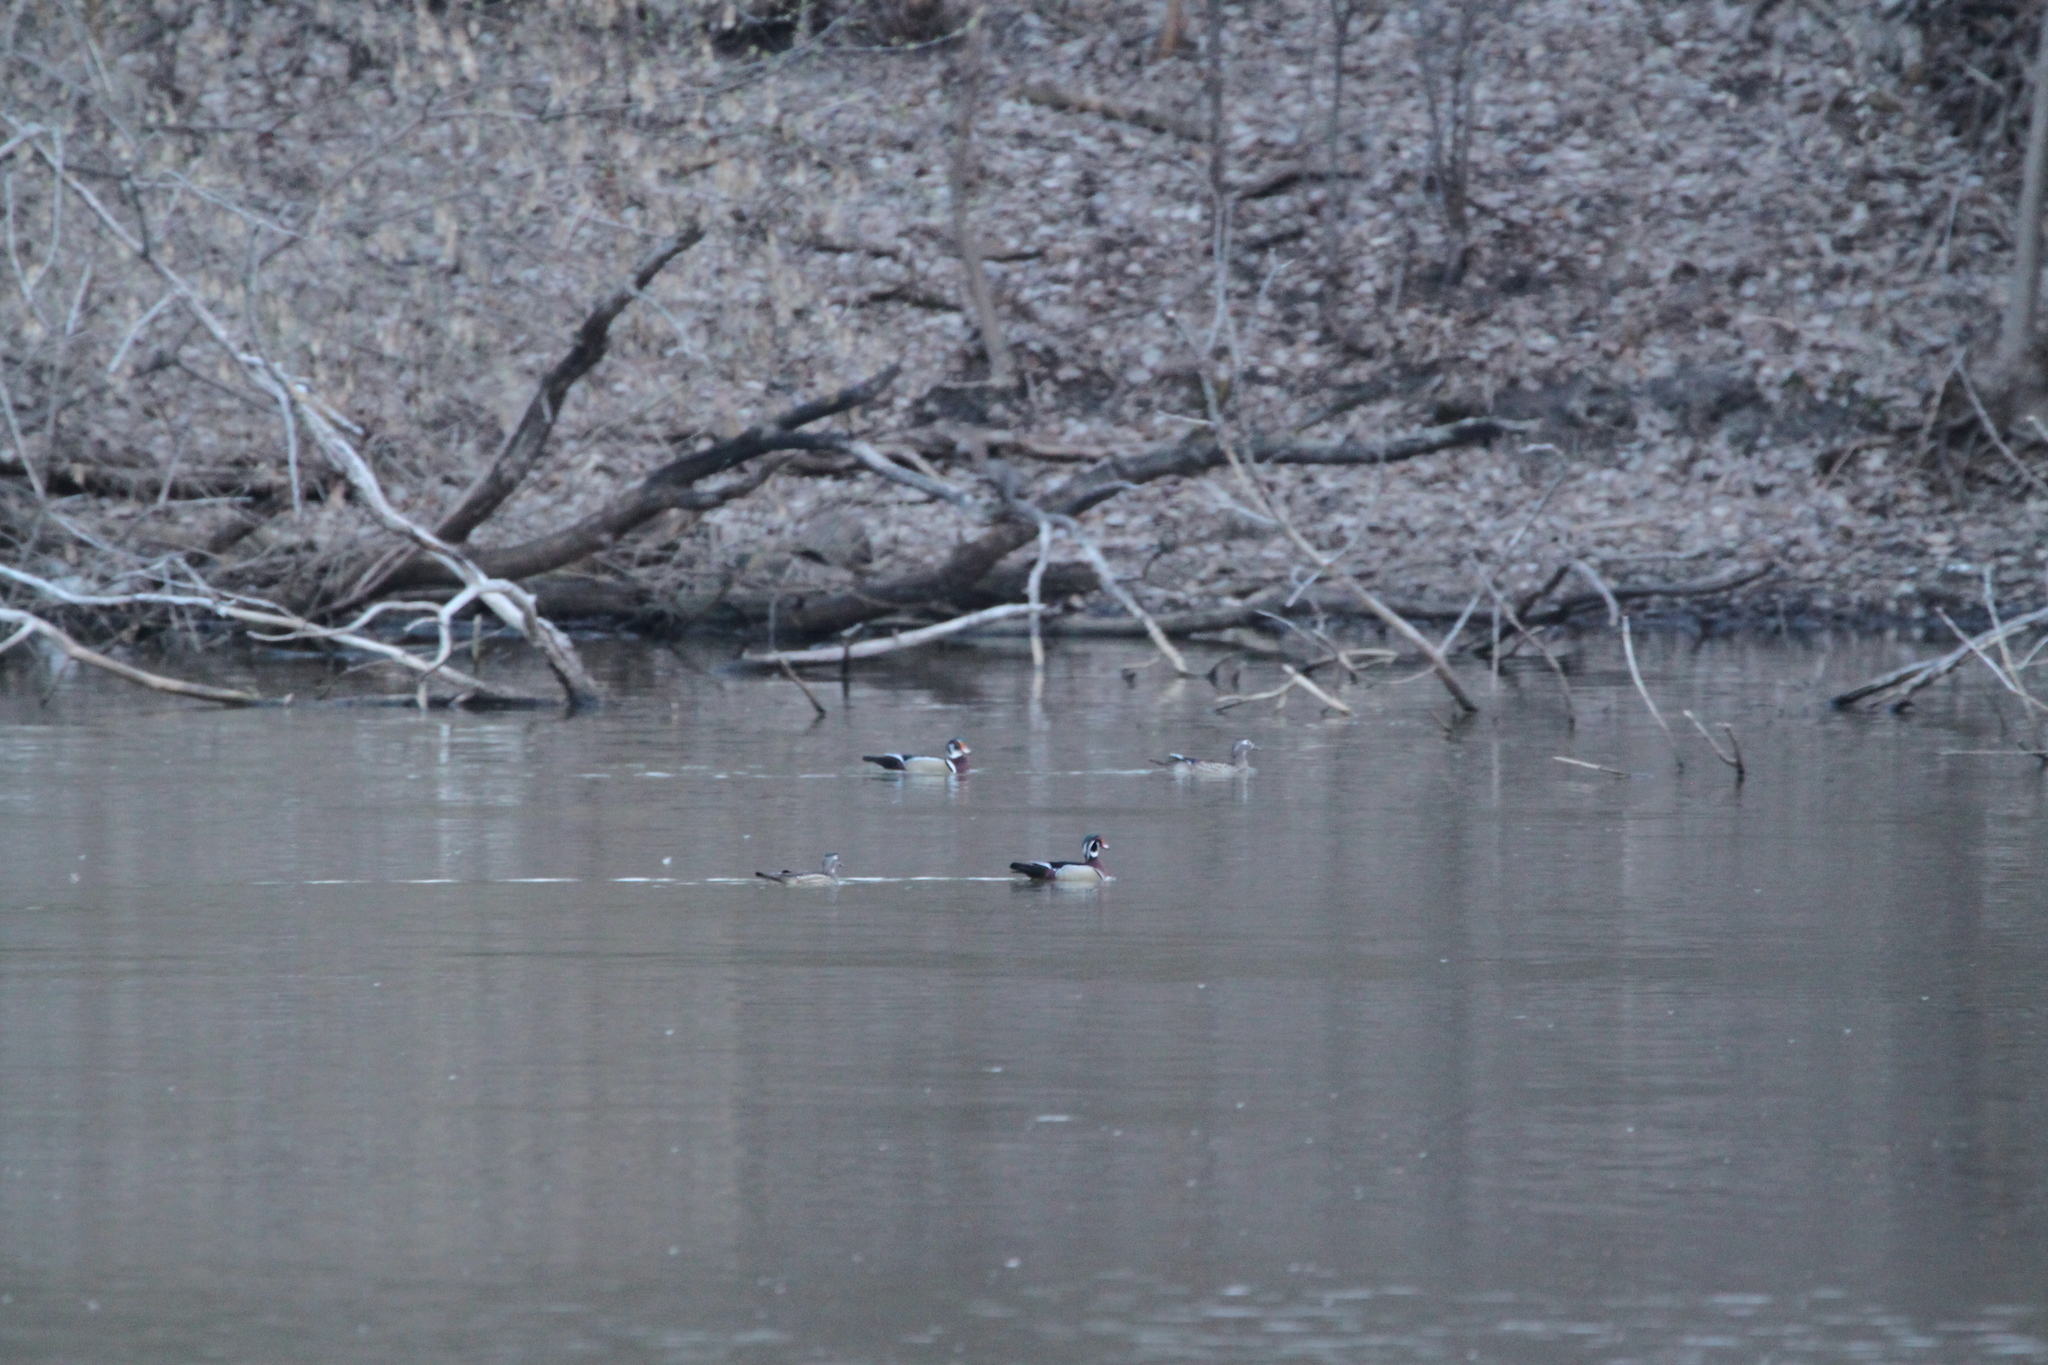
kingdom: Animalia
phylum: Chordata
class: Aves
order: Anseriformes
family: Anatidae
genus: Aix
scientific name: Aix sponsa
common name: Wood duck
